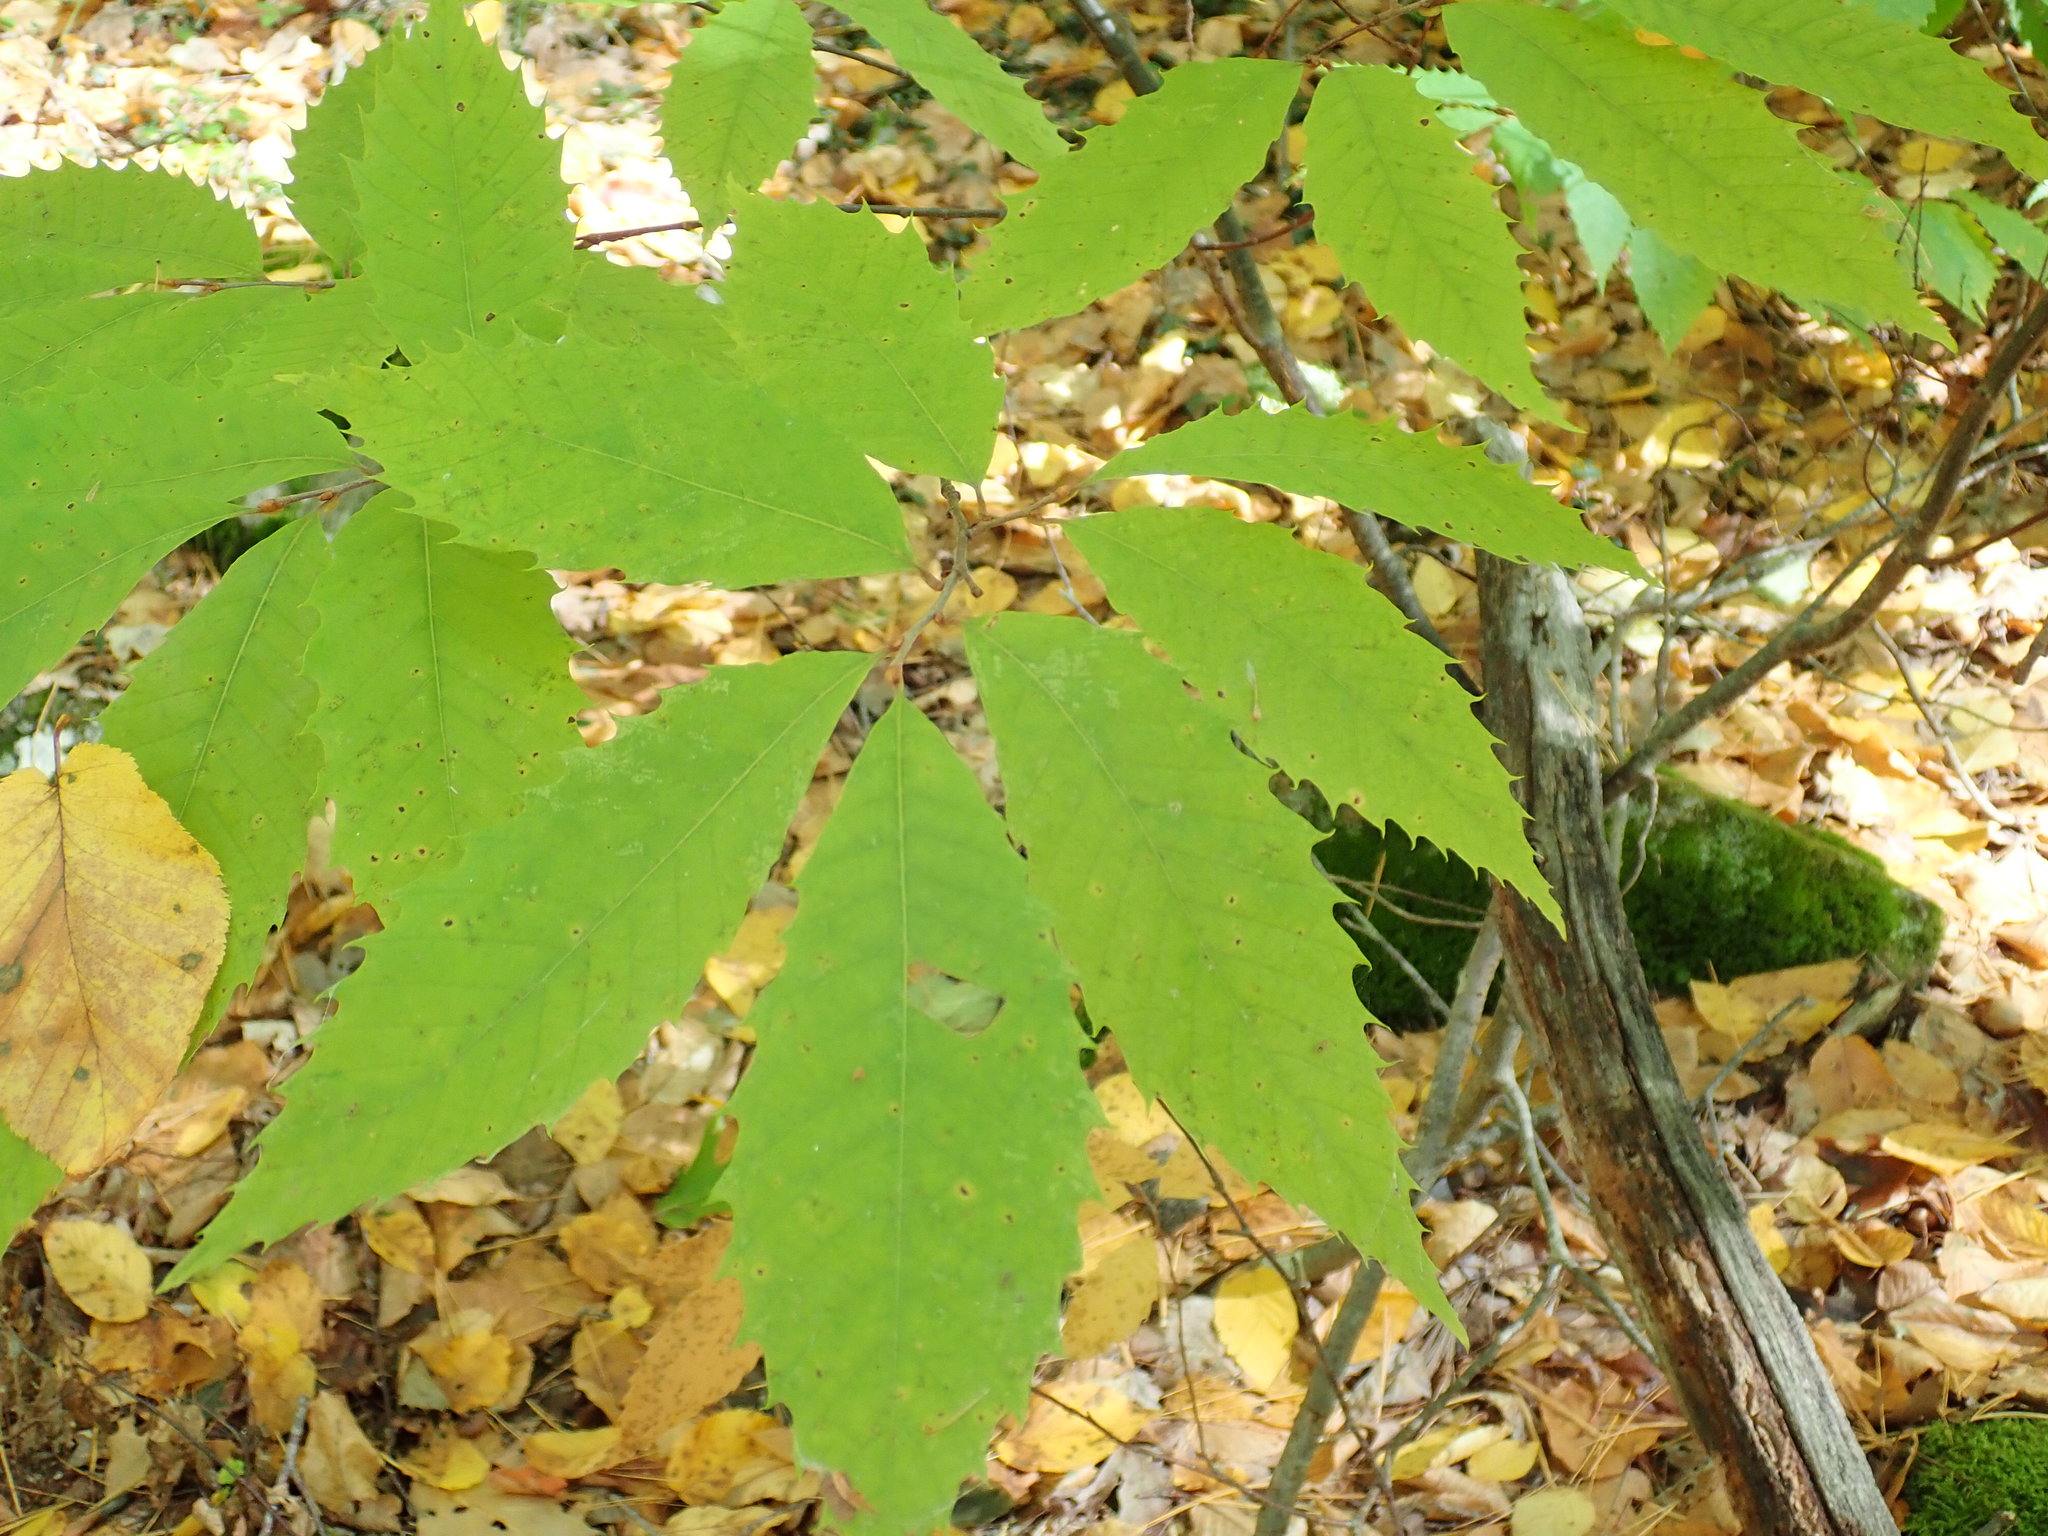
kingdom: Plantae
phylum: Tracheophyta
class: Magnoliopsida
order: Fagales
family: Fagaceae
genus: Castanea
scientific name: Castanea dentata
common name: American chestnut
